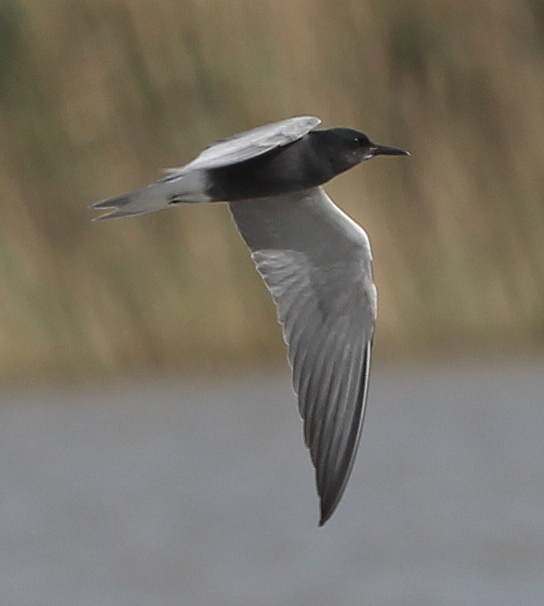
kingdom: Animalia
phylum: Chordata
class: Aves
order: Charadriiformes
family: Laridae
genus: Chlidonias
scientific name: Chlidonias niger
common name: Black tern
